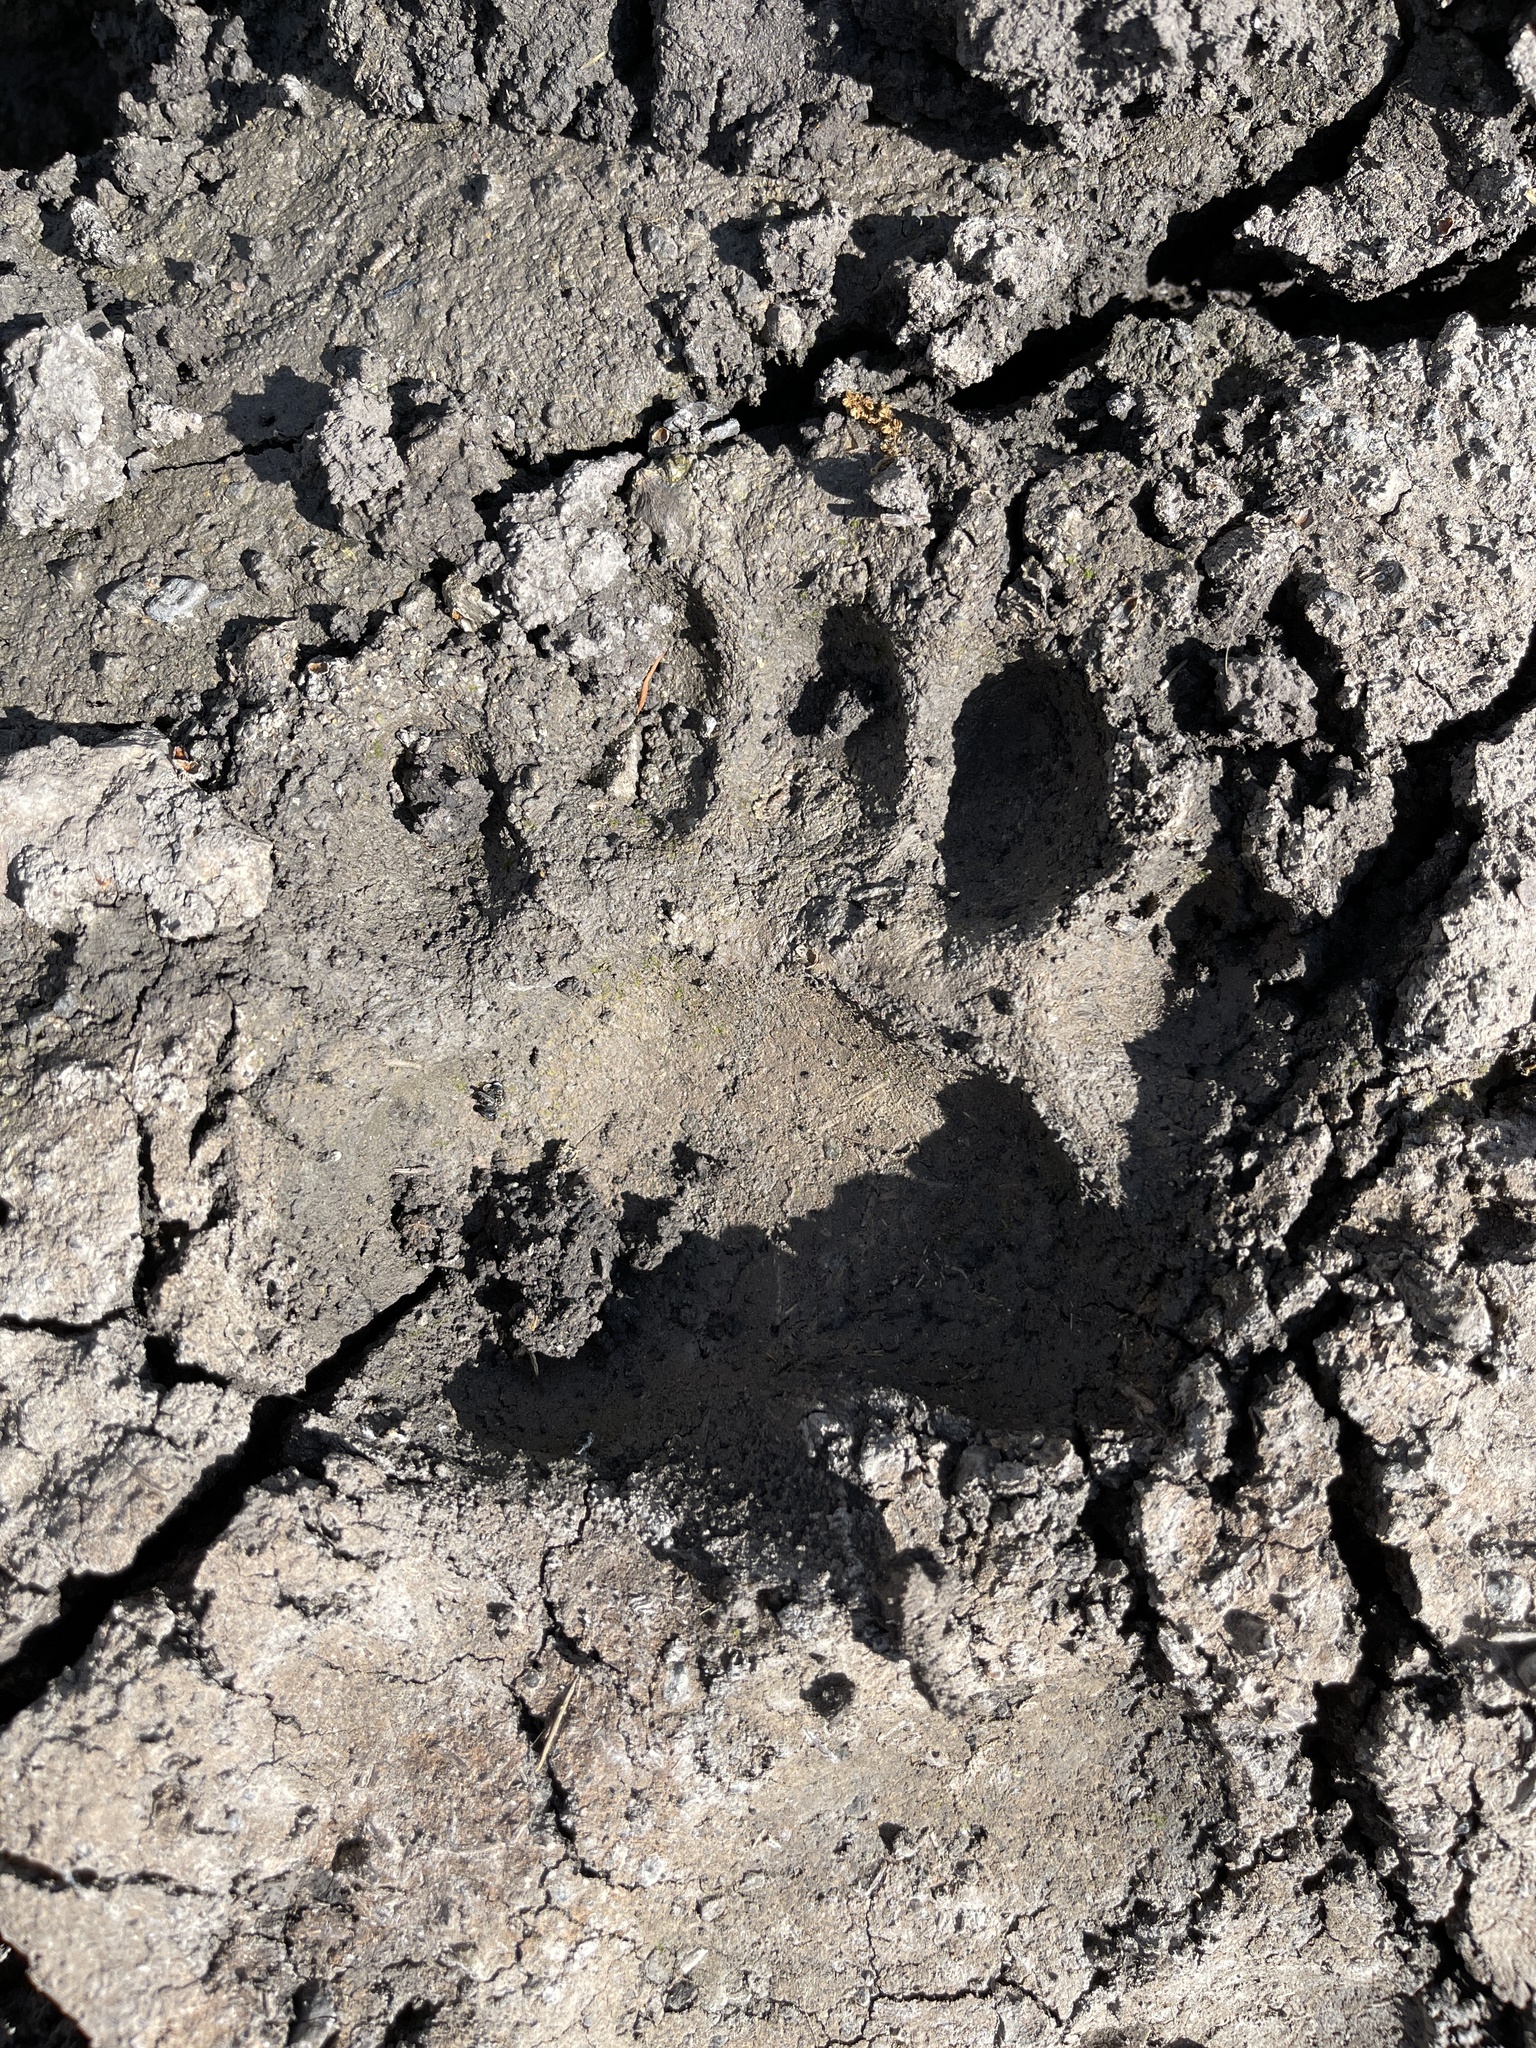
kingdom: Animalia
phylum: Chordata
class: Mammalia
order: Carnivora
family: Ursidae
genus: Ursus
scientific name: Ursus americanus
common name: American black bear
